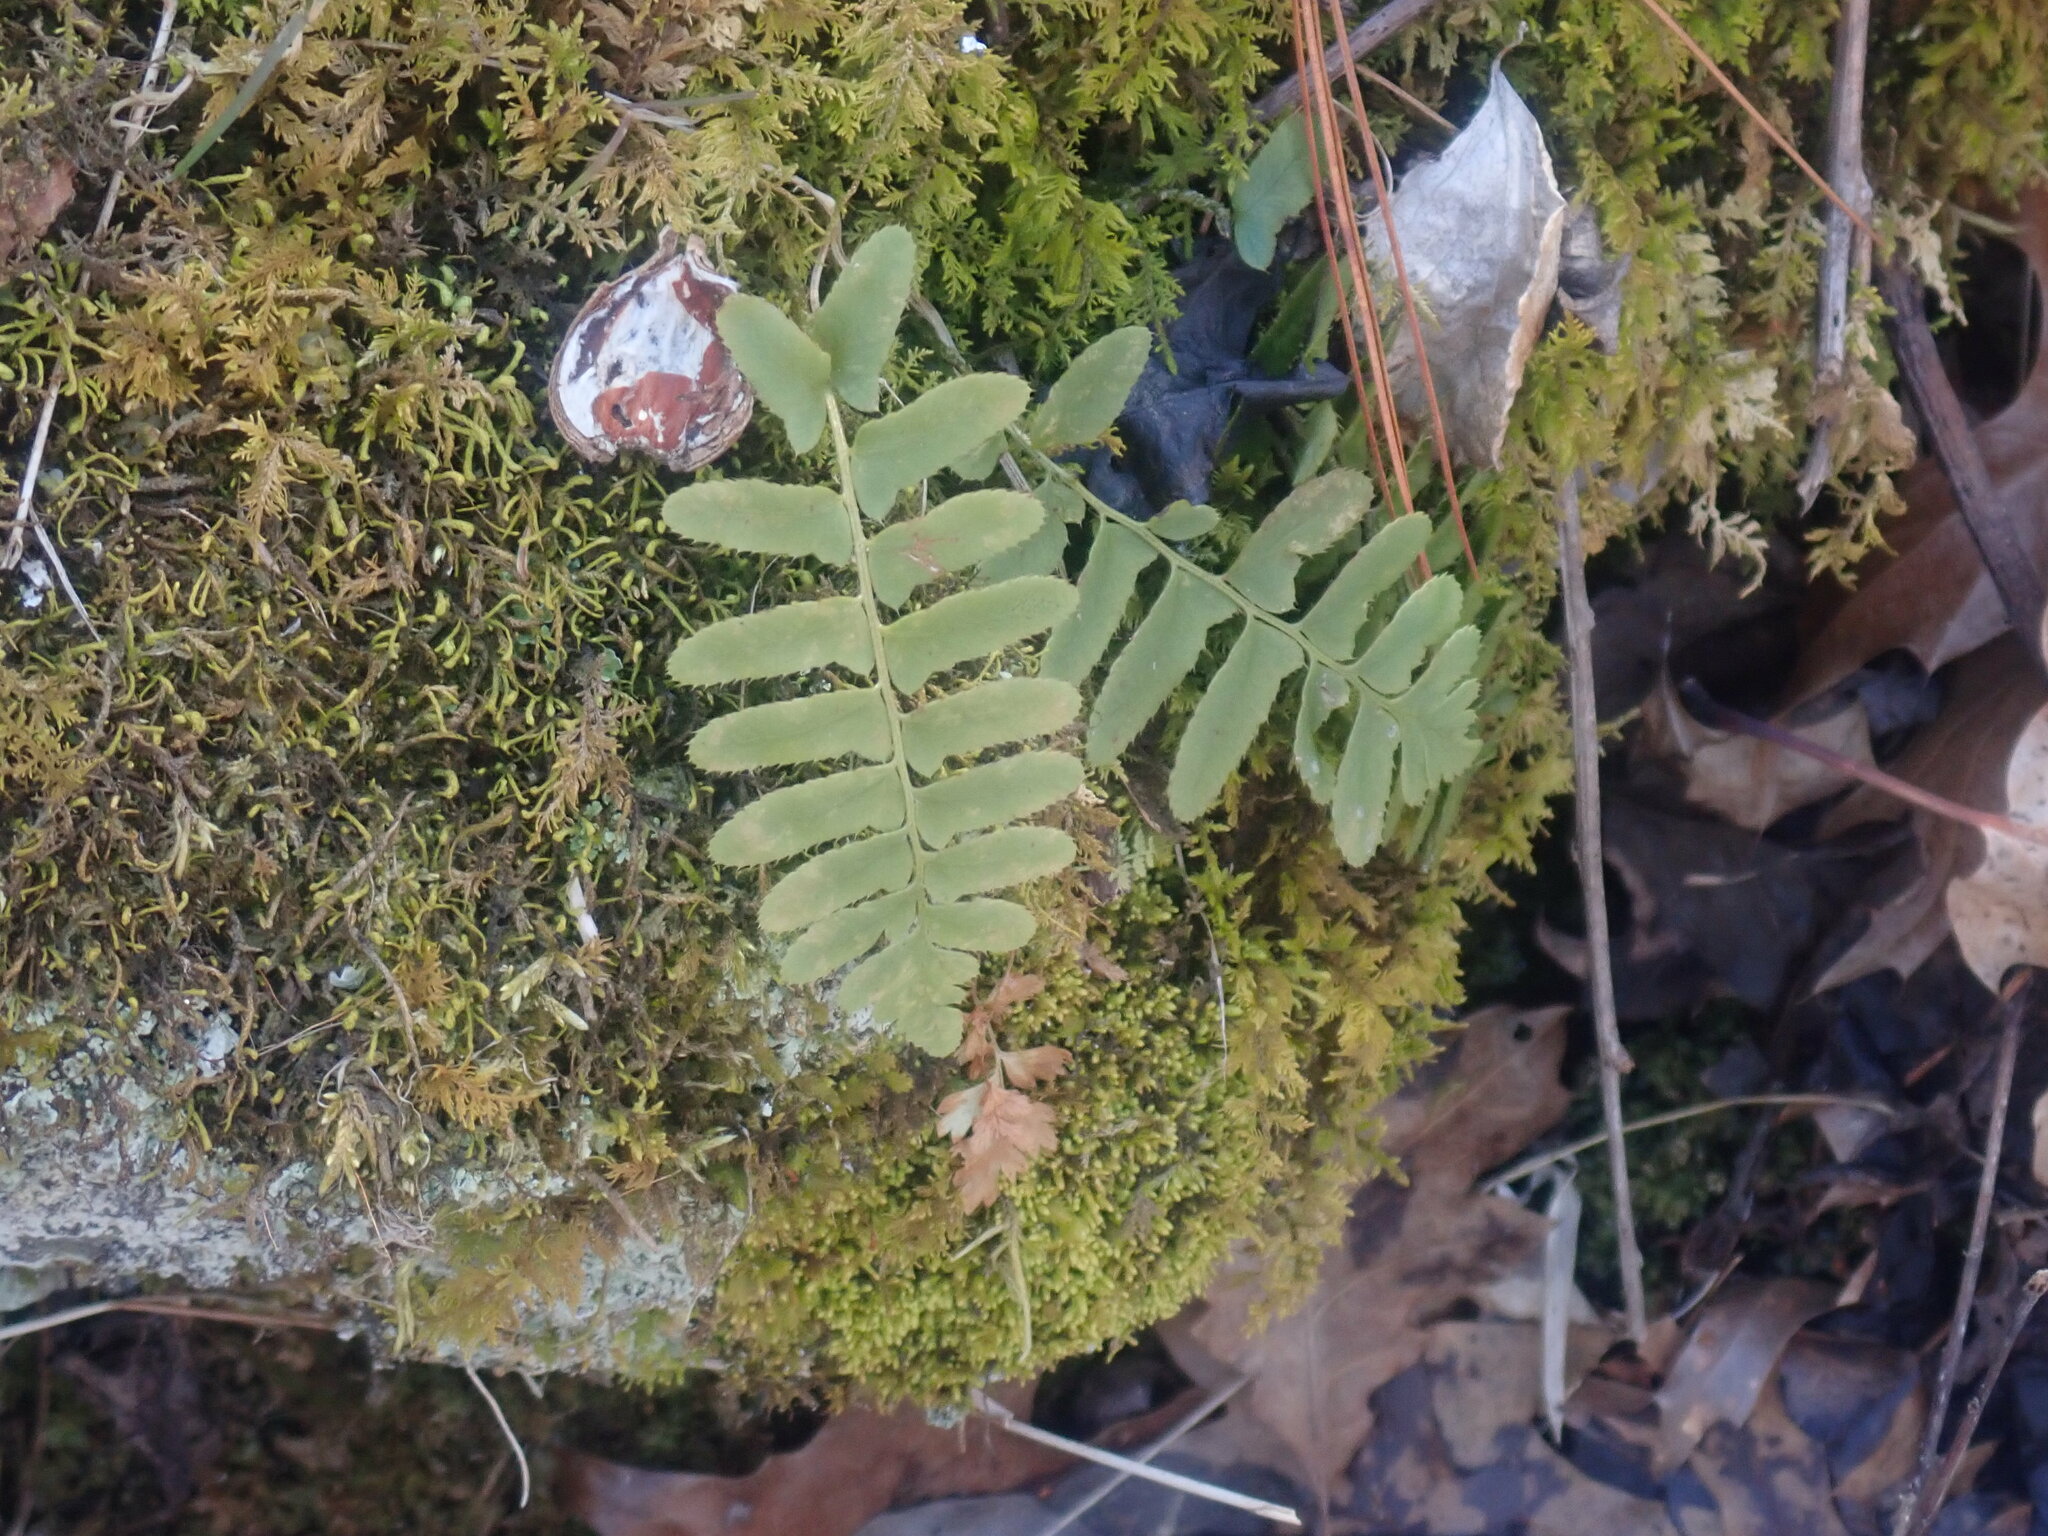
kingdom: Plantae
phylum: Tracheophyta
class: Polypodiopsida
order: Polypodiales
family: Dryopteridaceae
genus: Polystichum
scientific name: Polystichum acrostichoides
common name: Christmas fern
